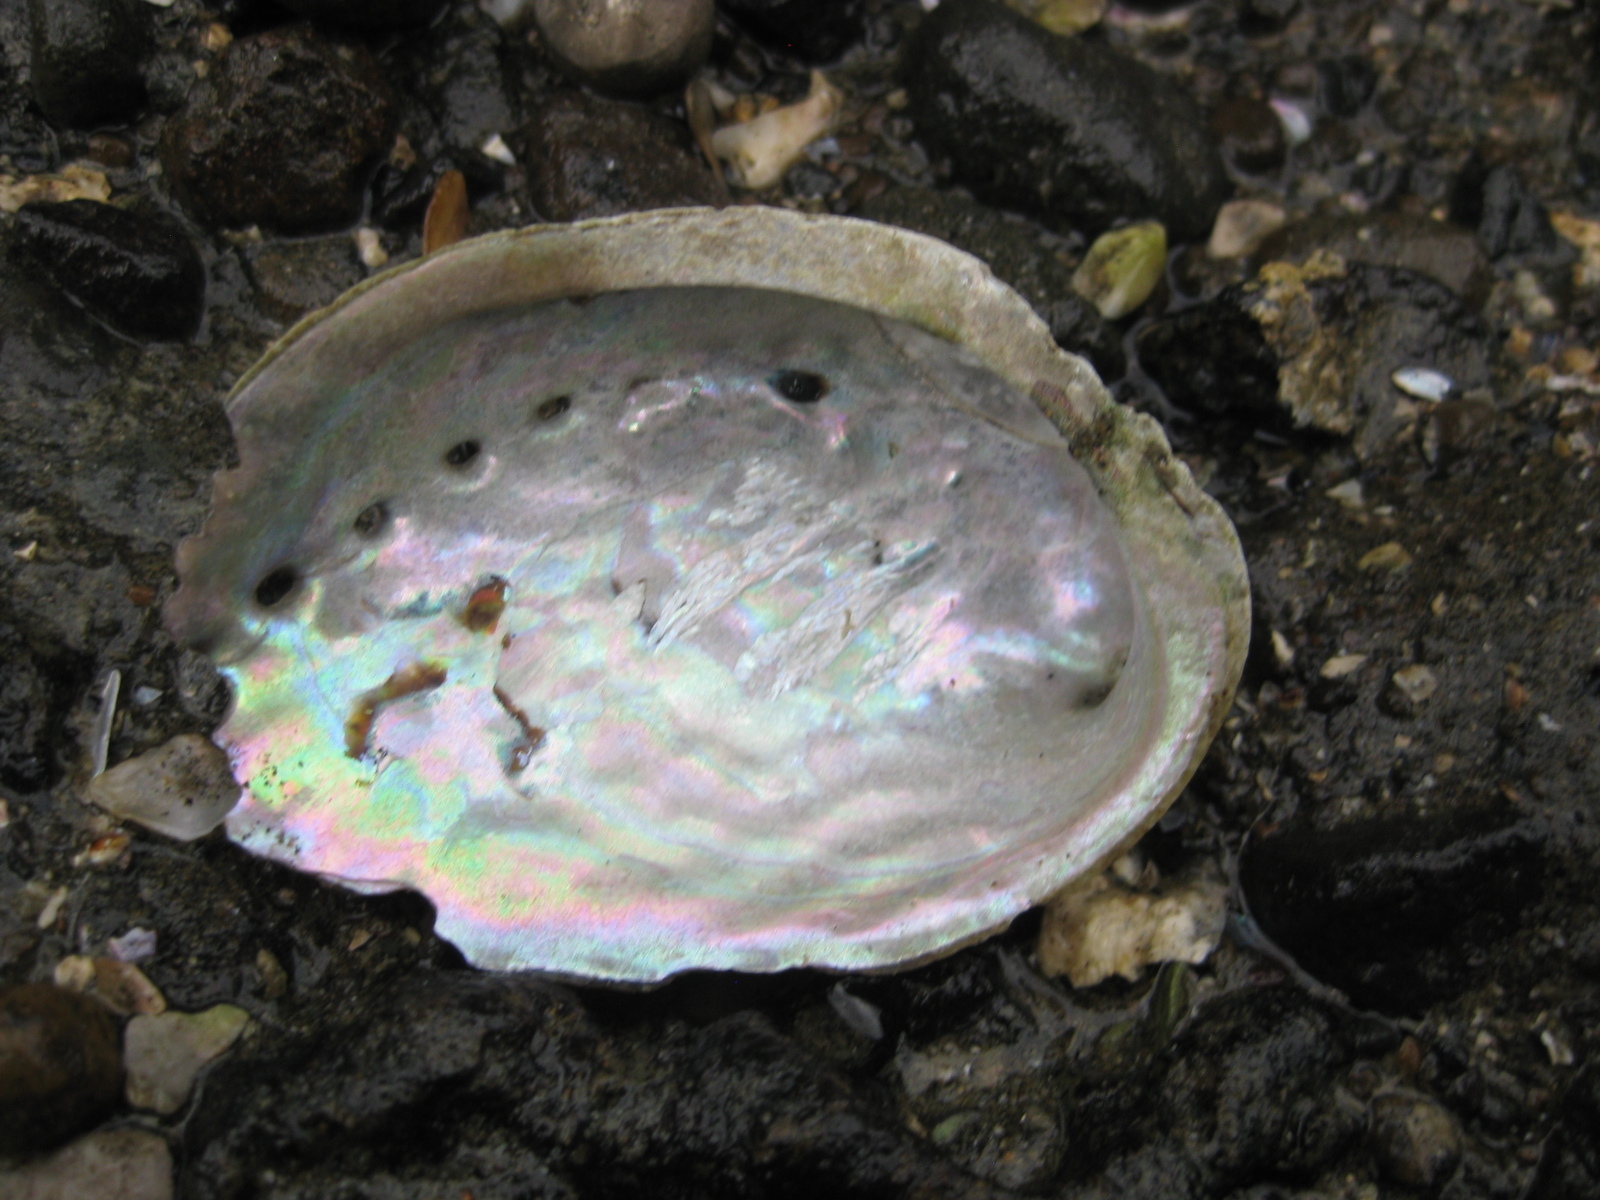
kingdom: Animalia
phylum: Mollusca
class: Gastropoda
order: Lepetellida
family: Haliotidae
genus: Haliotis
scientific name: Haliotis iris
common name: Abalone
